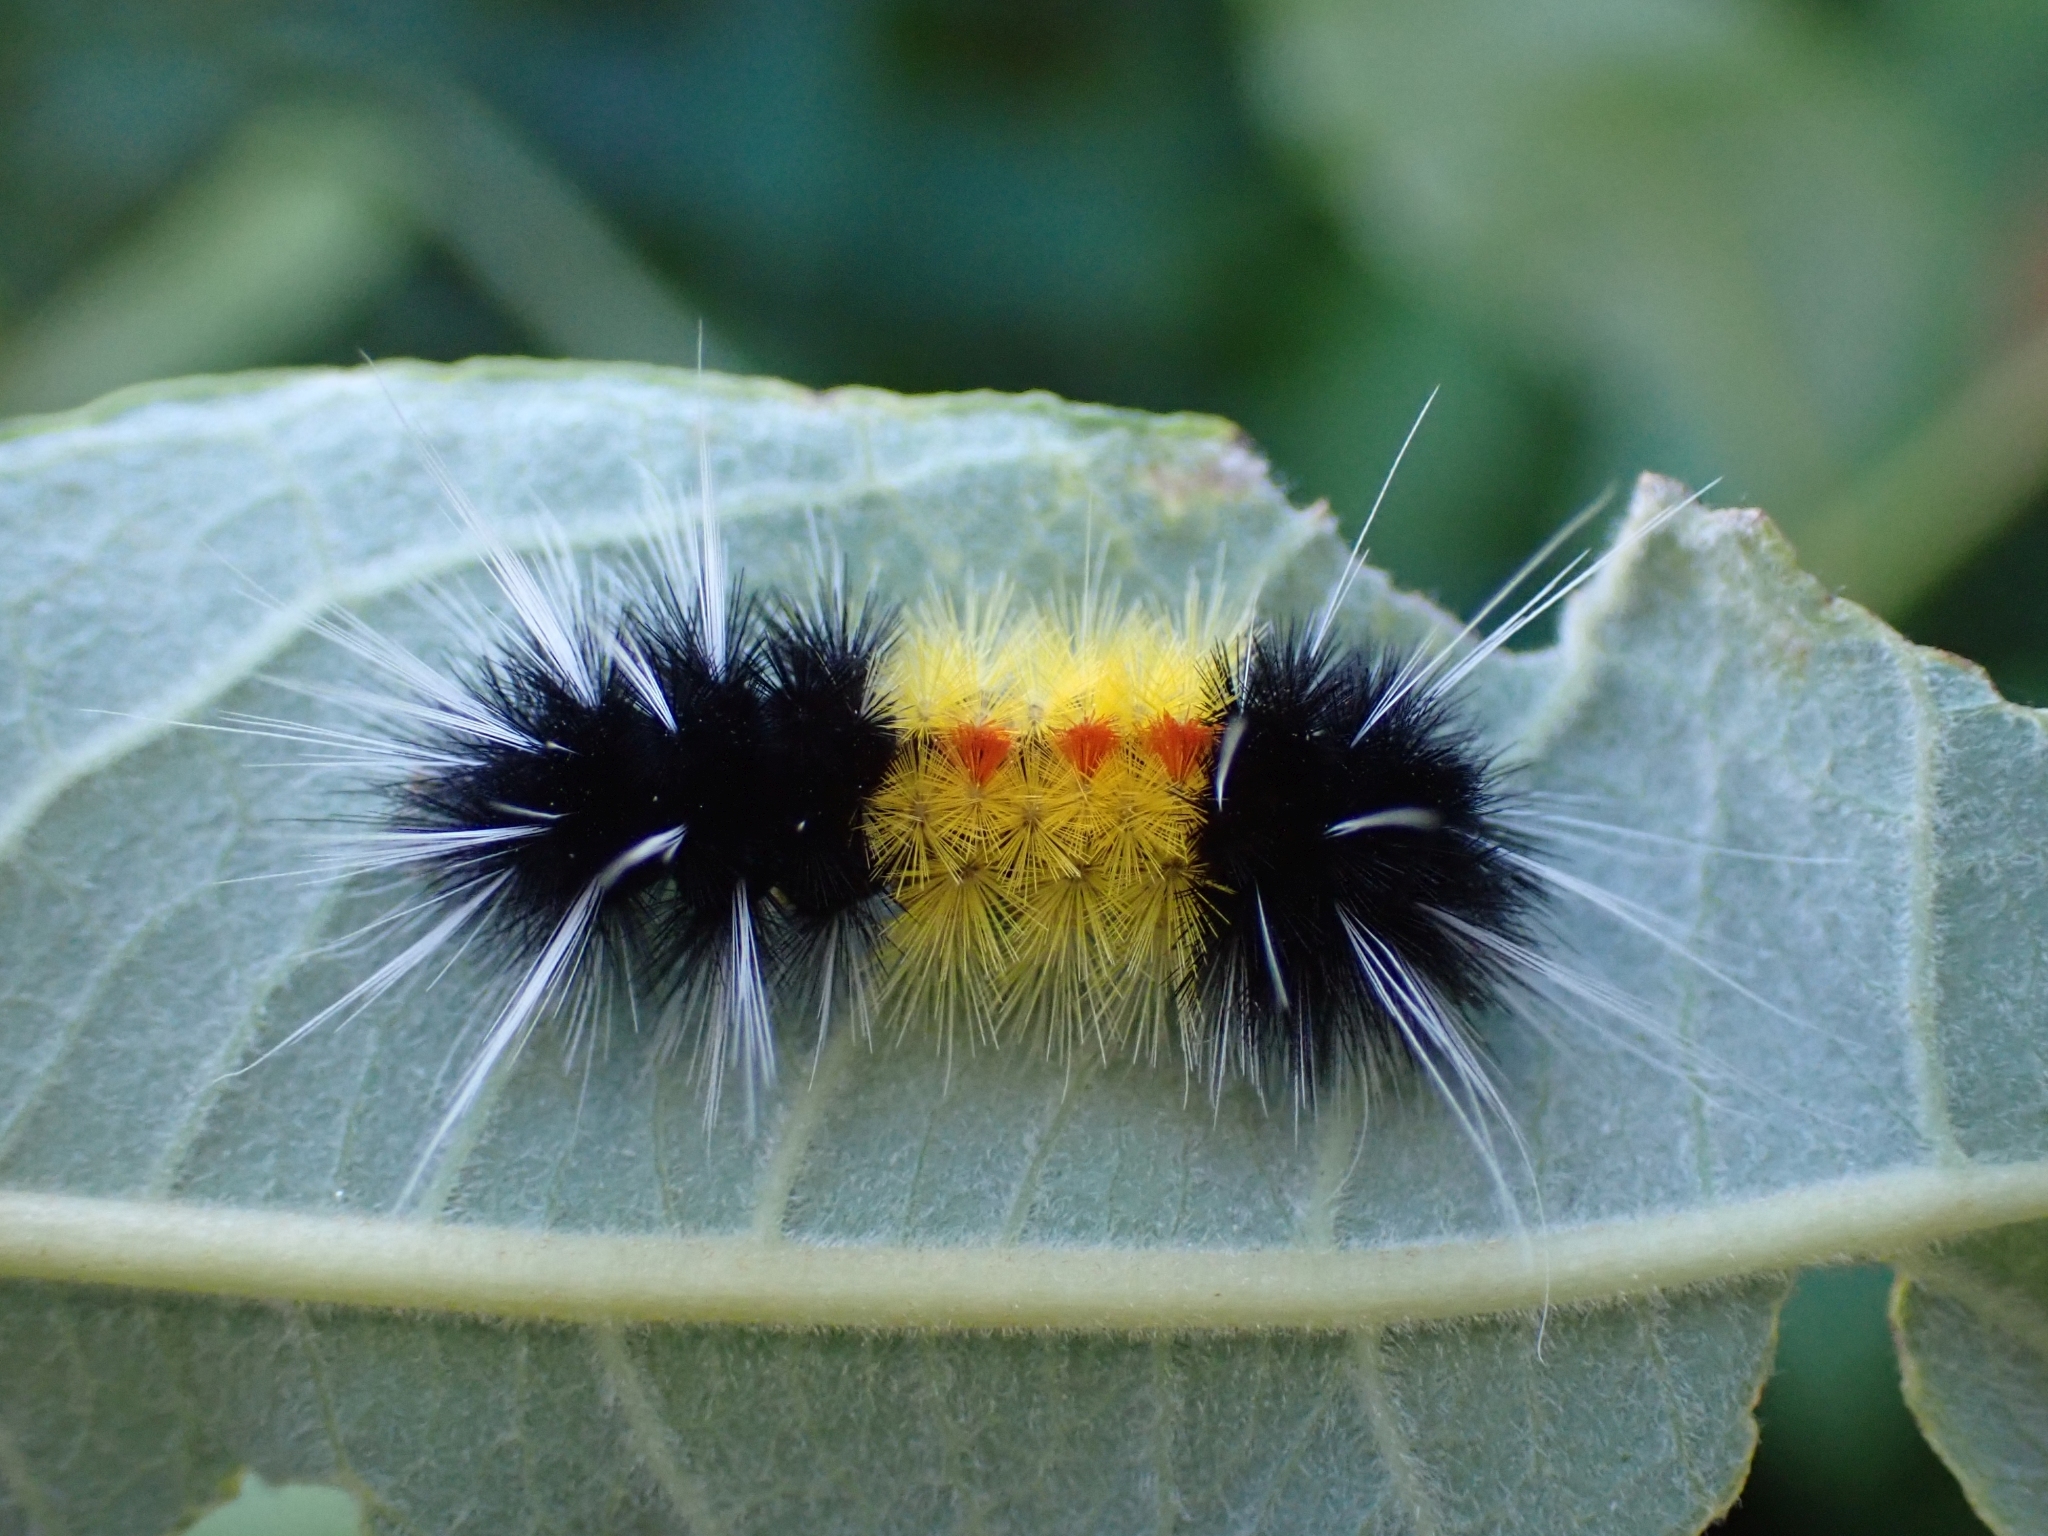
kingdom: Animalia
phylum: Arthropoda
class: Insecta
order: Lepidoptera
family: Erebidae
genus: Lophocampa
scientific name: Lophocampa maculata
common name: Spotted tussock moth
